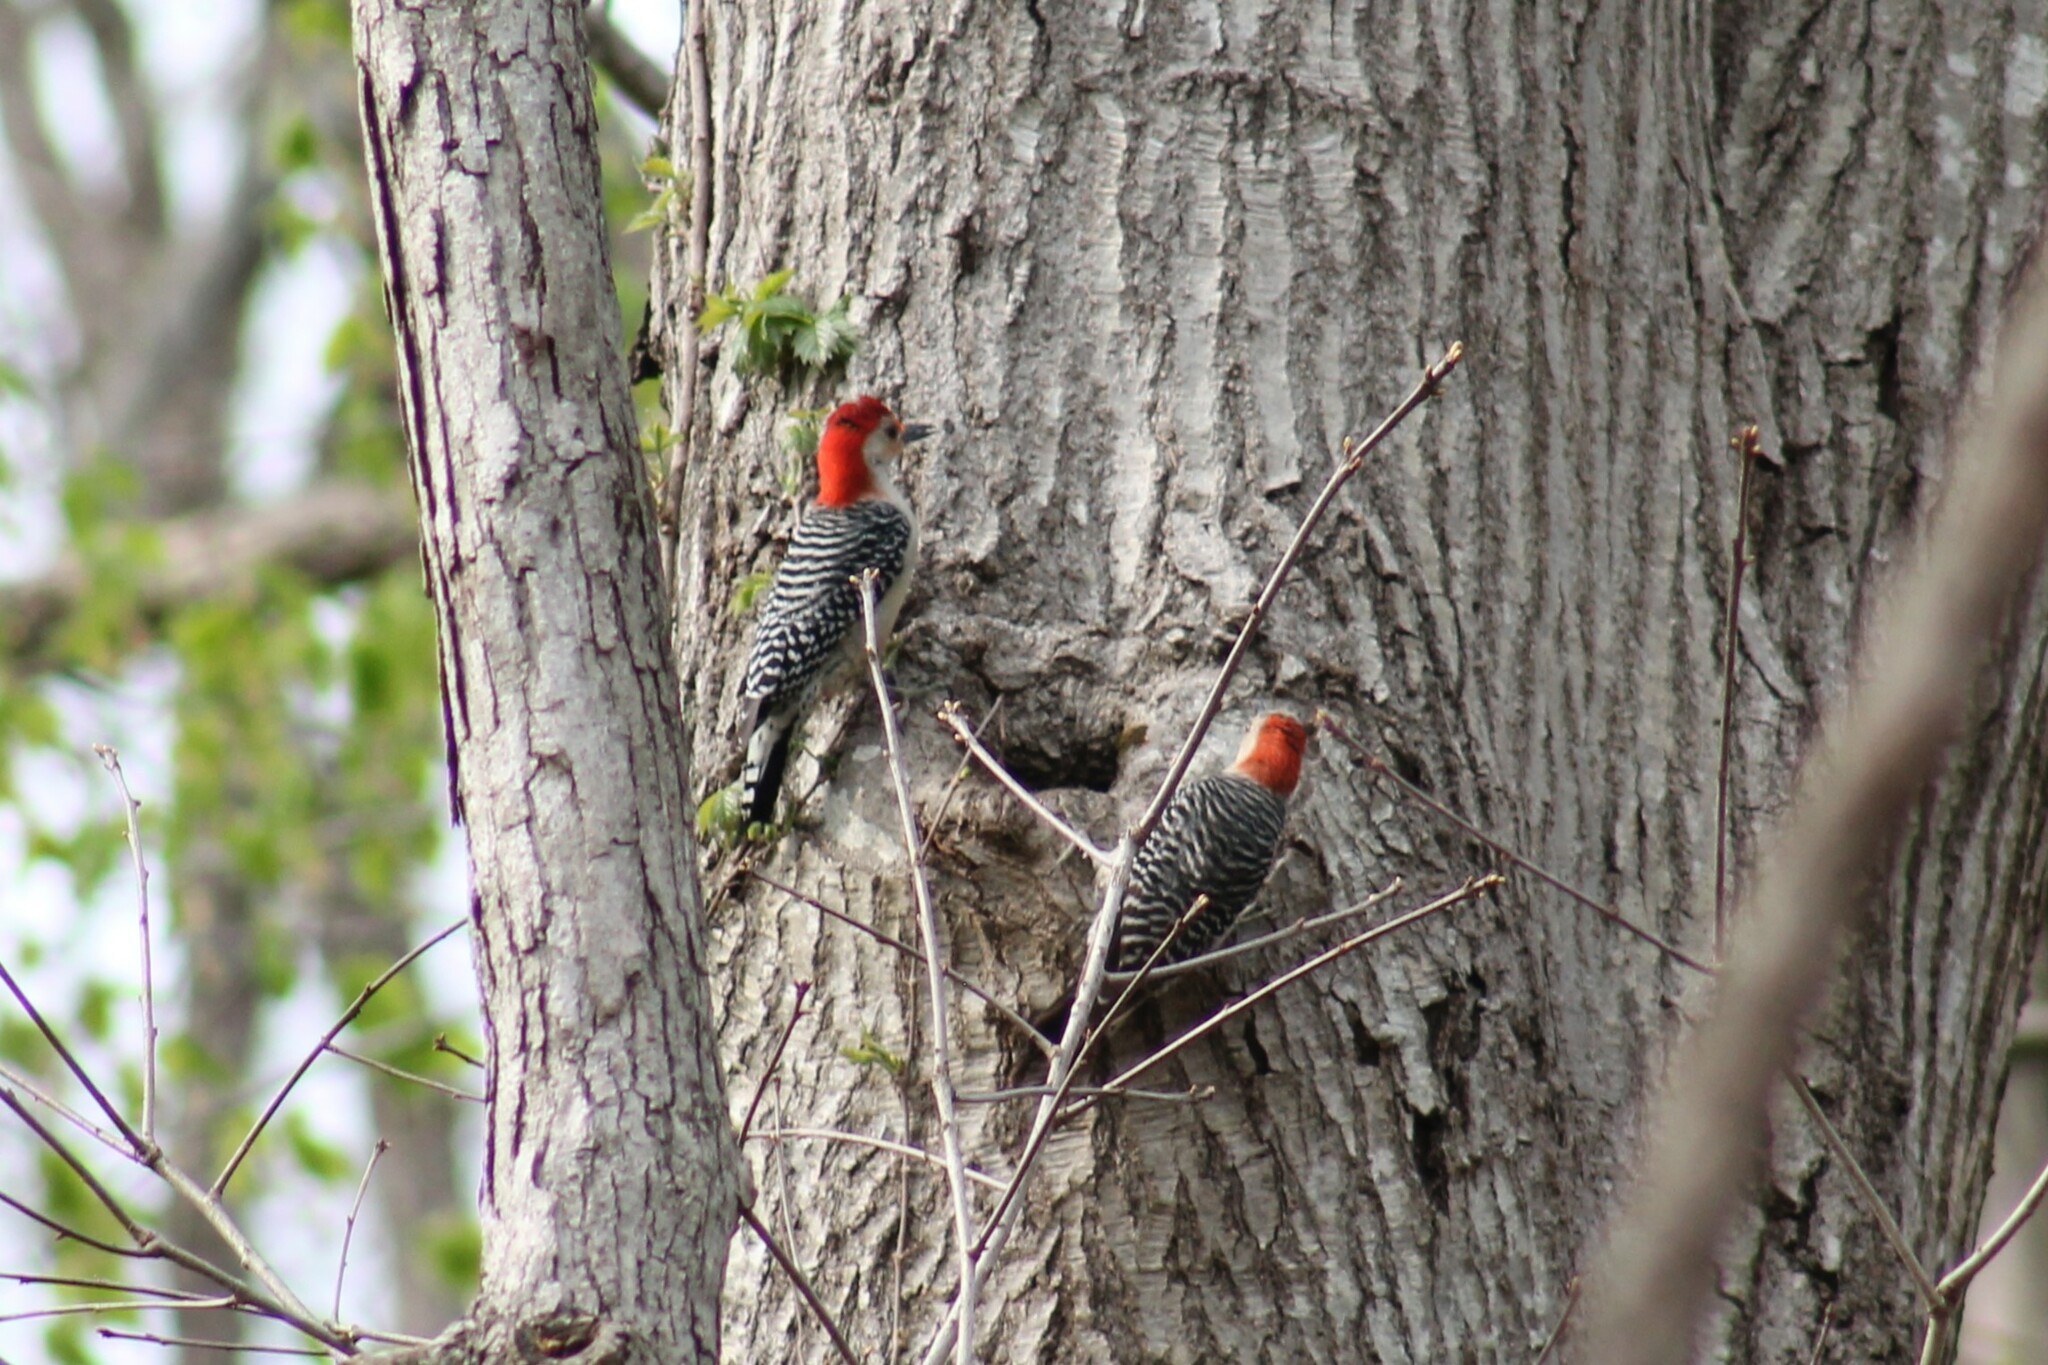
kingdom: Animalia
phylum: Chordata
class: Aves
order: Piciformes
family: Picidae
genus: Melanerpes
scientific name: Melanerpes carolinus
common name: Red-bellied woodpecker
